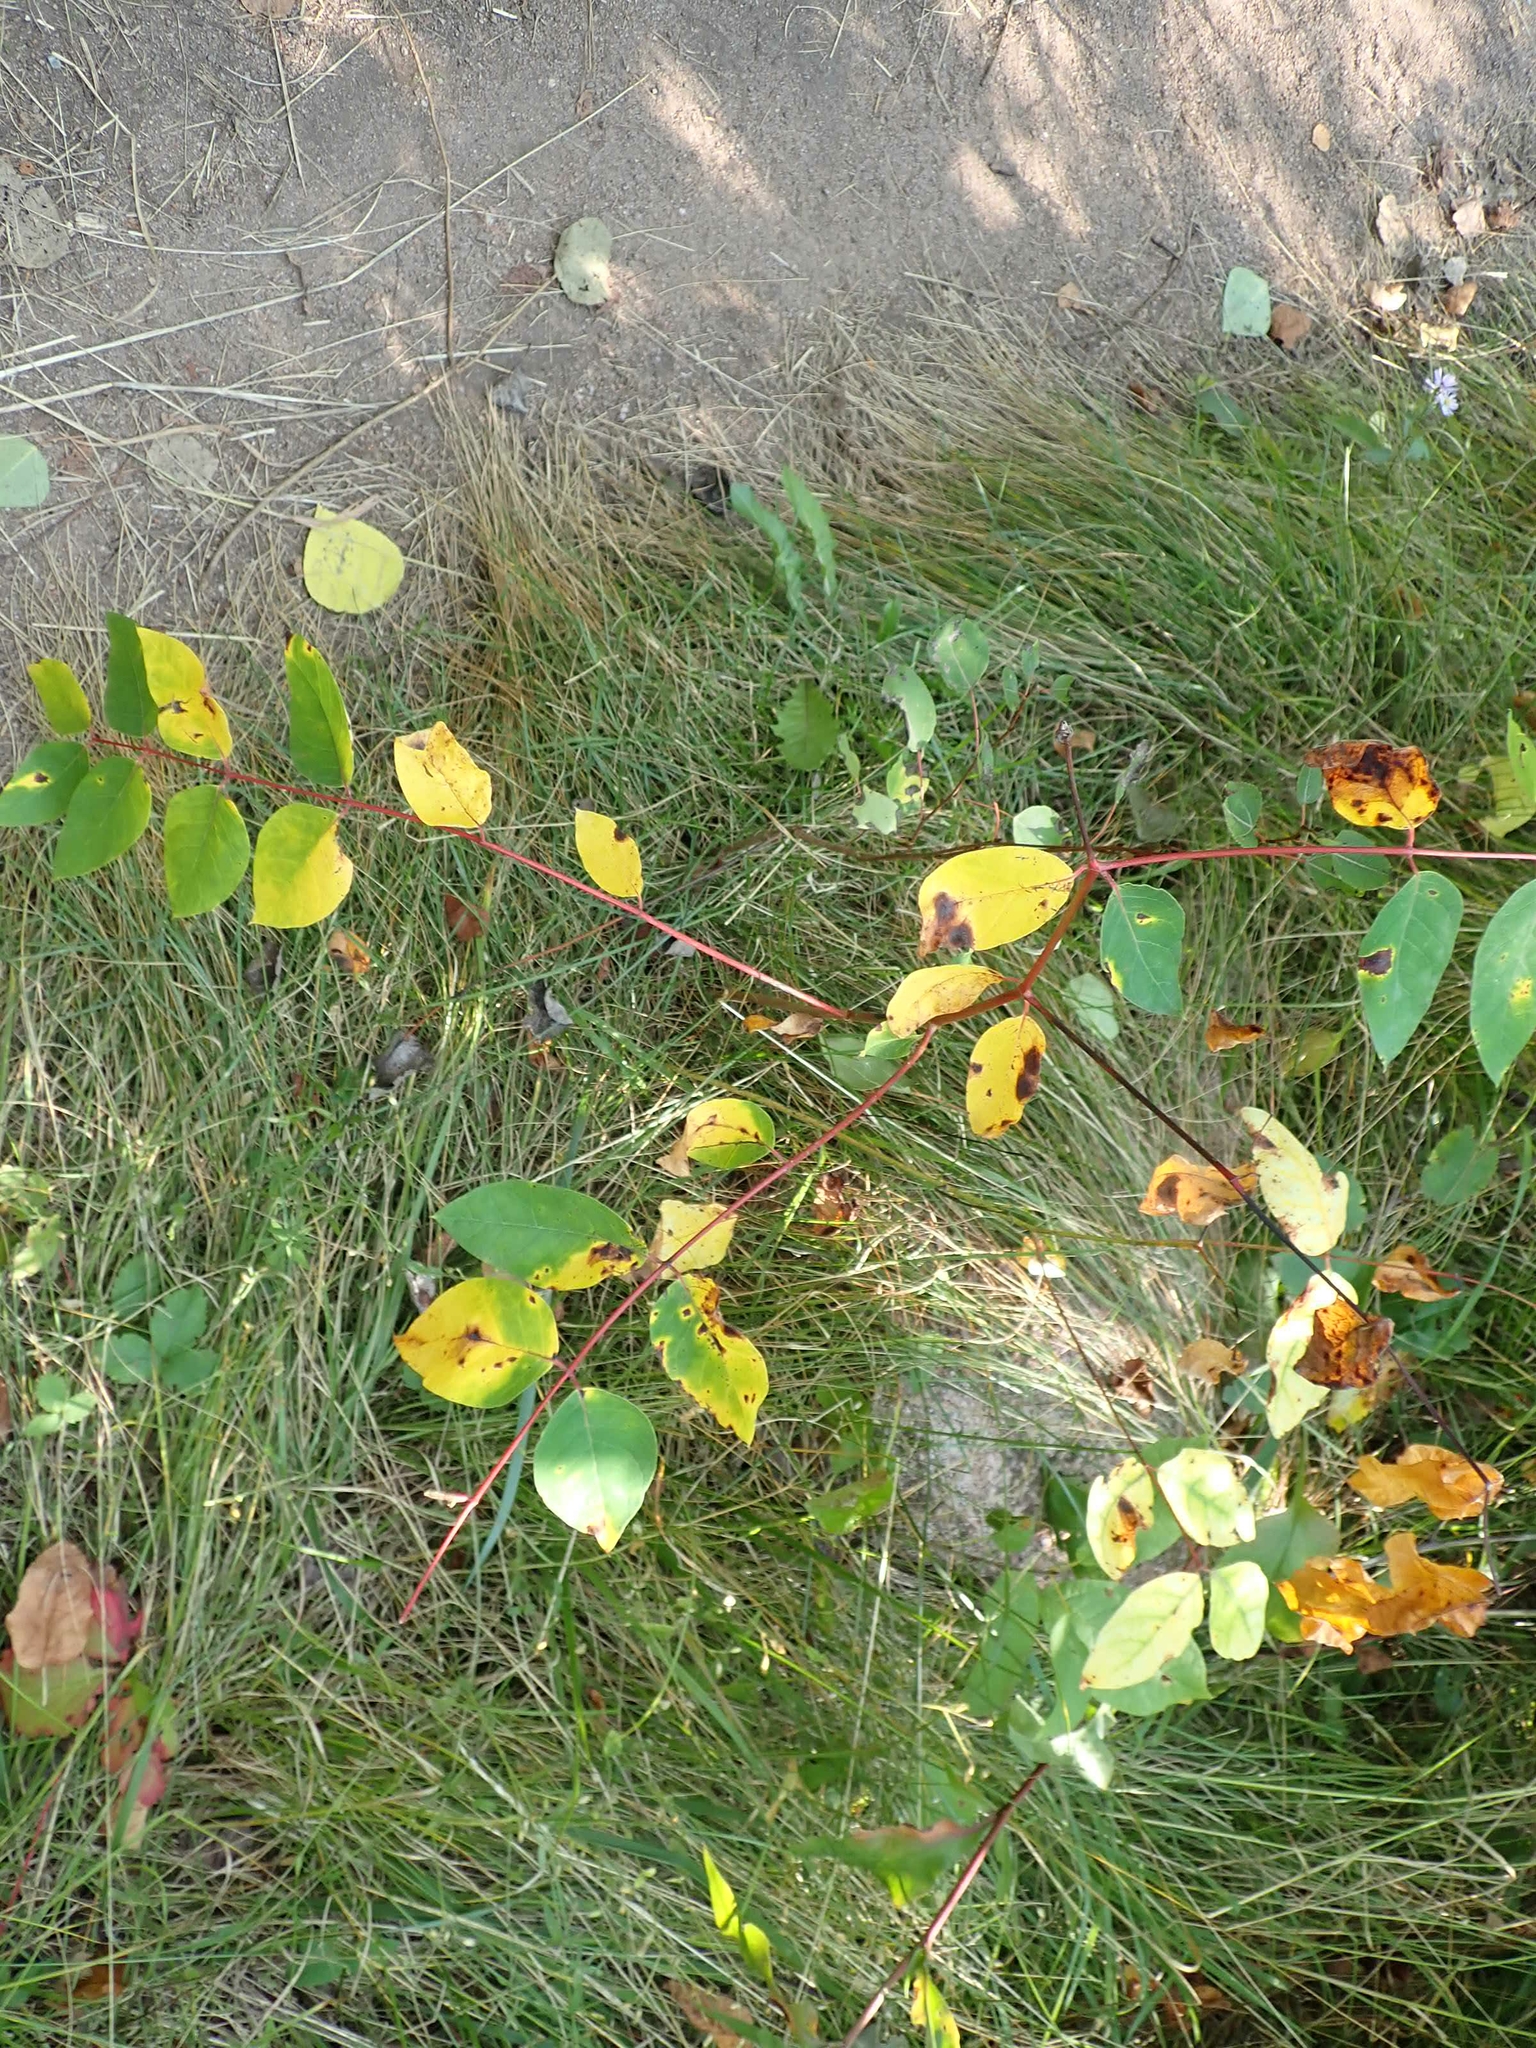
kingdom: Plantae
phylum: Tracheophyta
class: Magnoliopsida
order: Gentianales
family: Apocynaceae
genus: Apocynum
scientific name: Apocynum androsaemifolium
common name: Spreading dogbane
